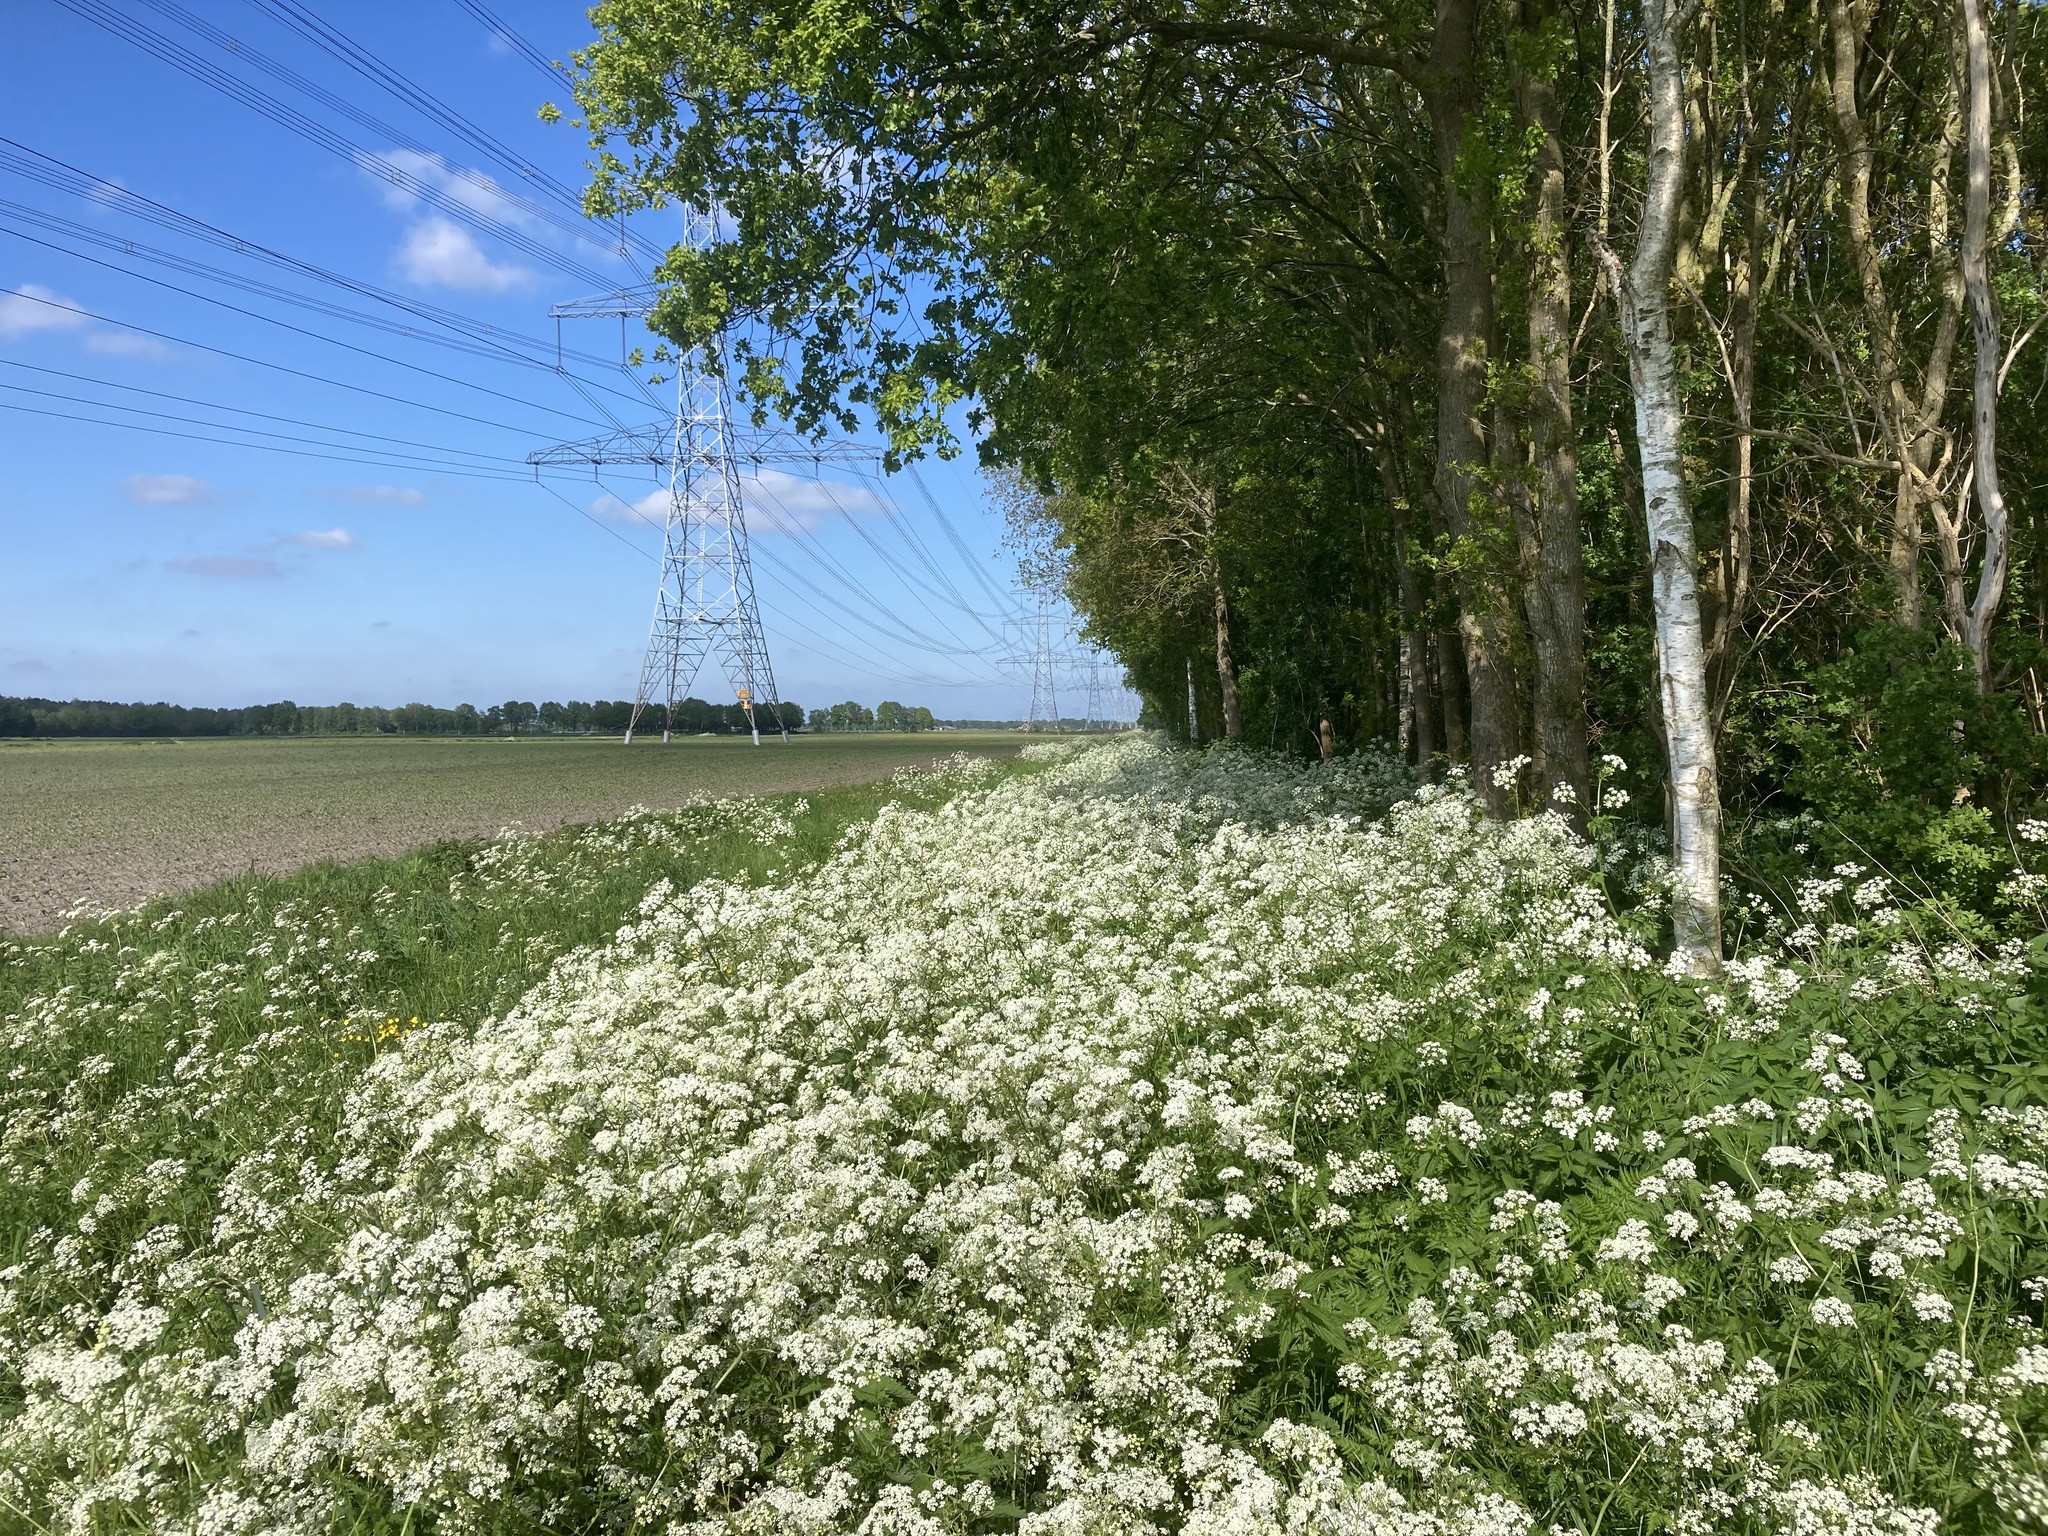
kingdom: Plantae
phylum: Tracheophyta
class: Magnoliopsida
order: Apiales
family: Apiaceae
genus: Anthriscus
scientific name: Anthriscus sylvestris
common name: Cow parsley
